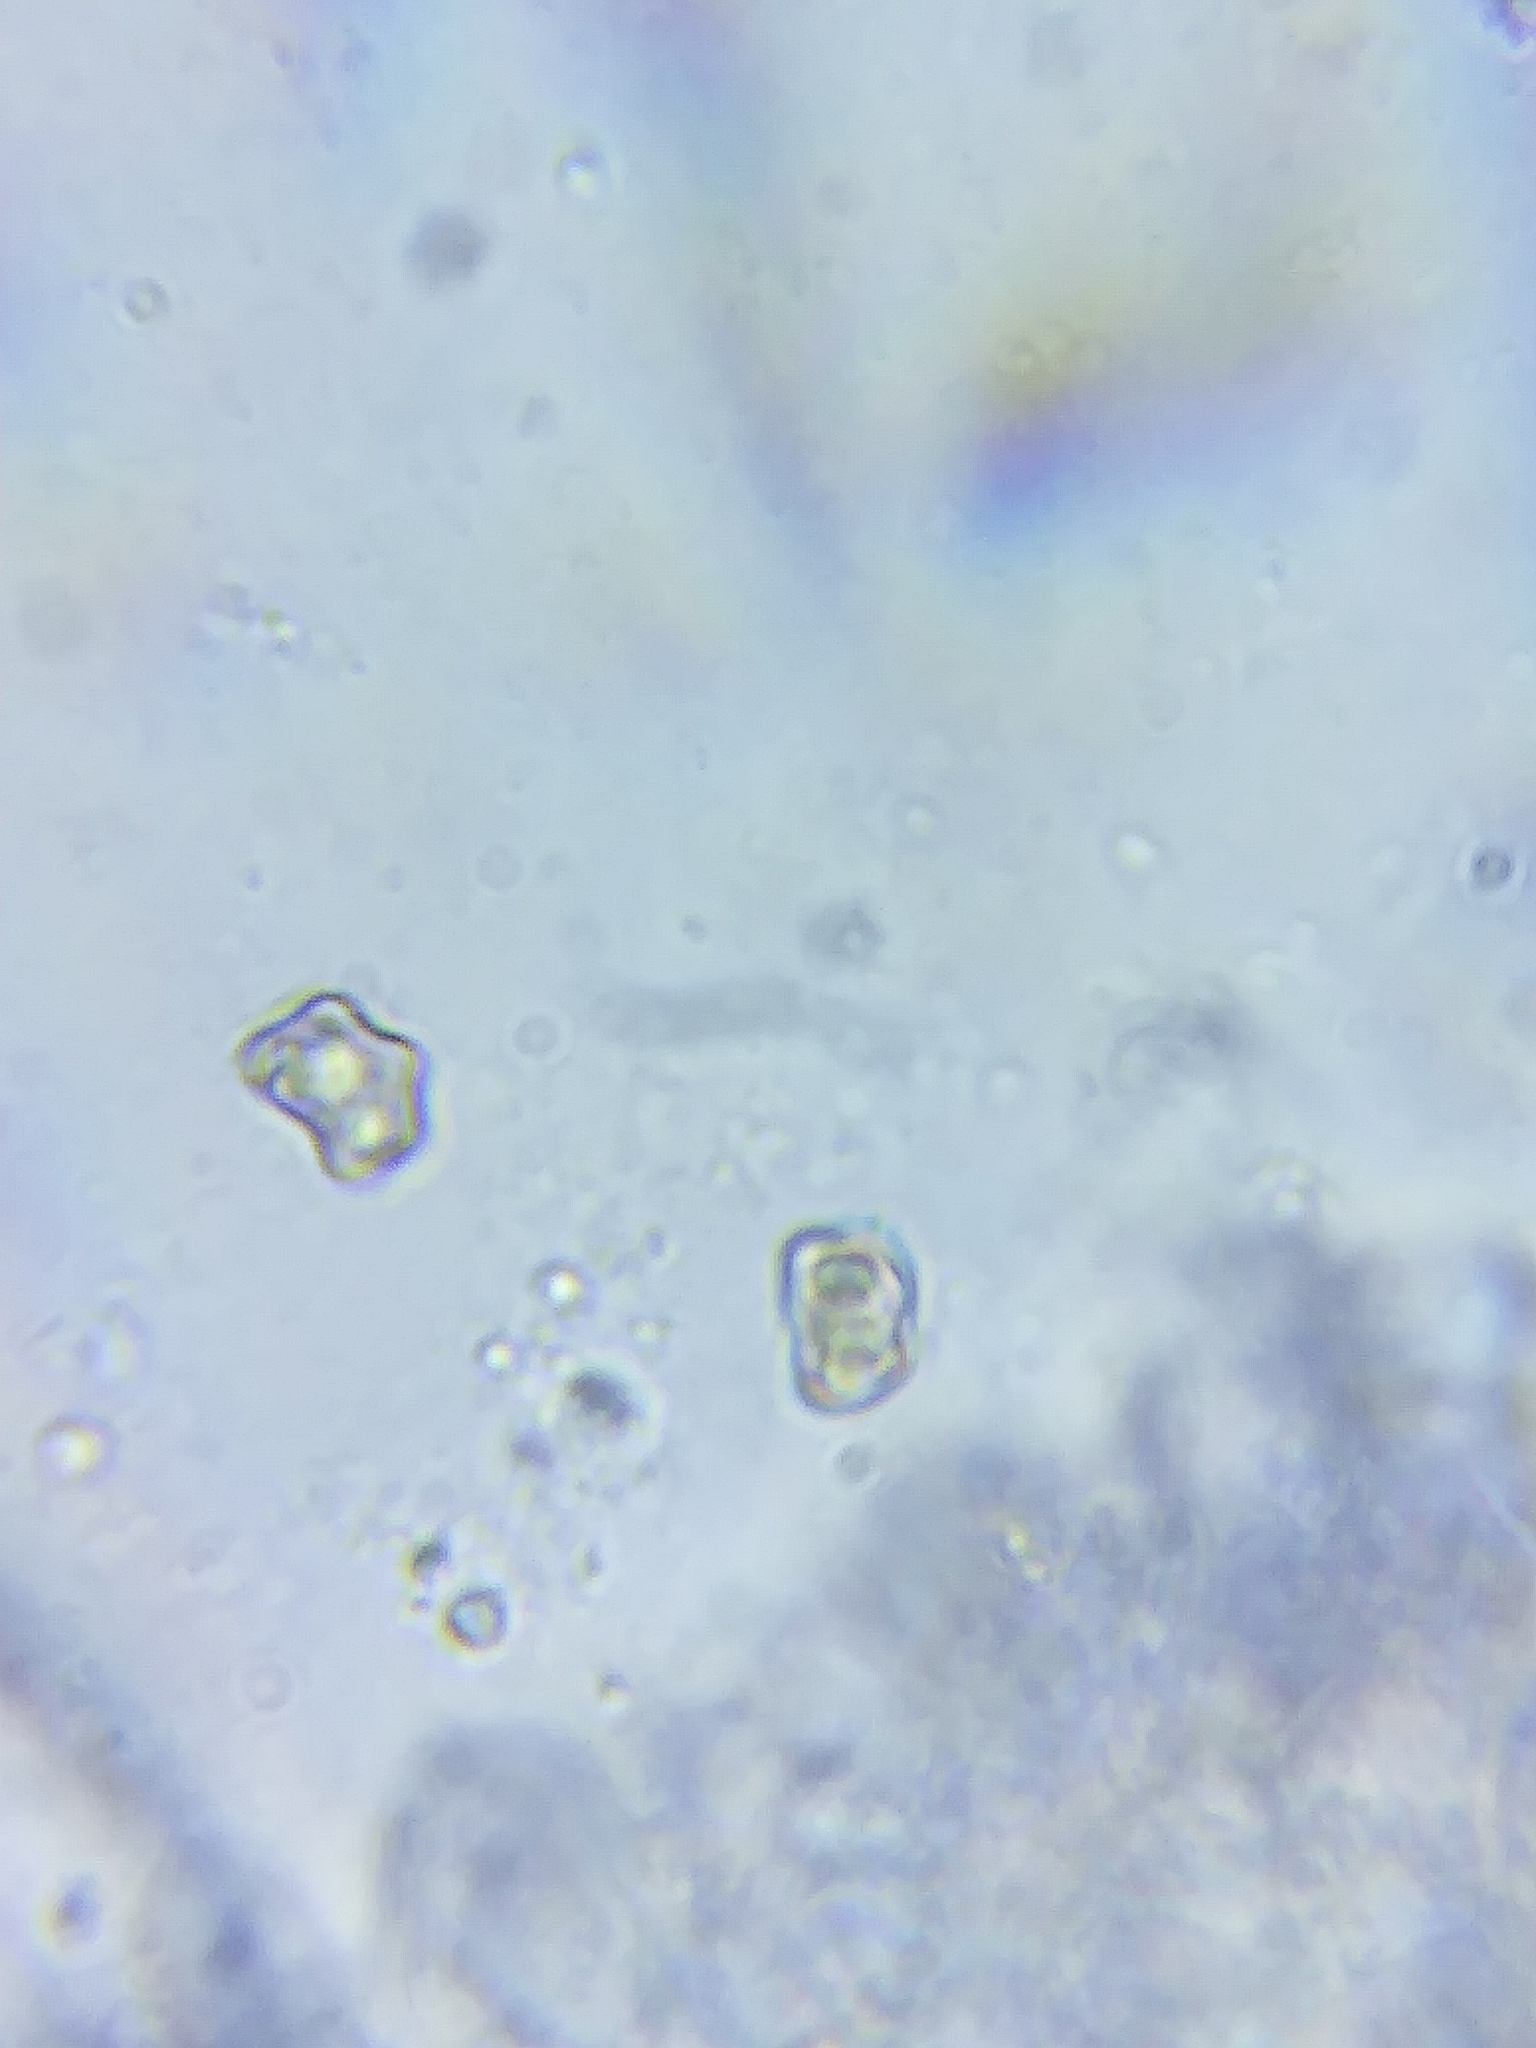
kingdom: Fungi
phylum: Basidiomycota
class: Agaricomycetes
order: Agaricales
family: Inocybaceae
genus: Inocybe
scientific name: Inocybe velicopia
